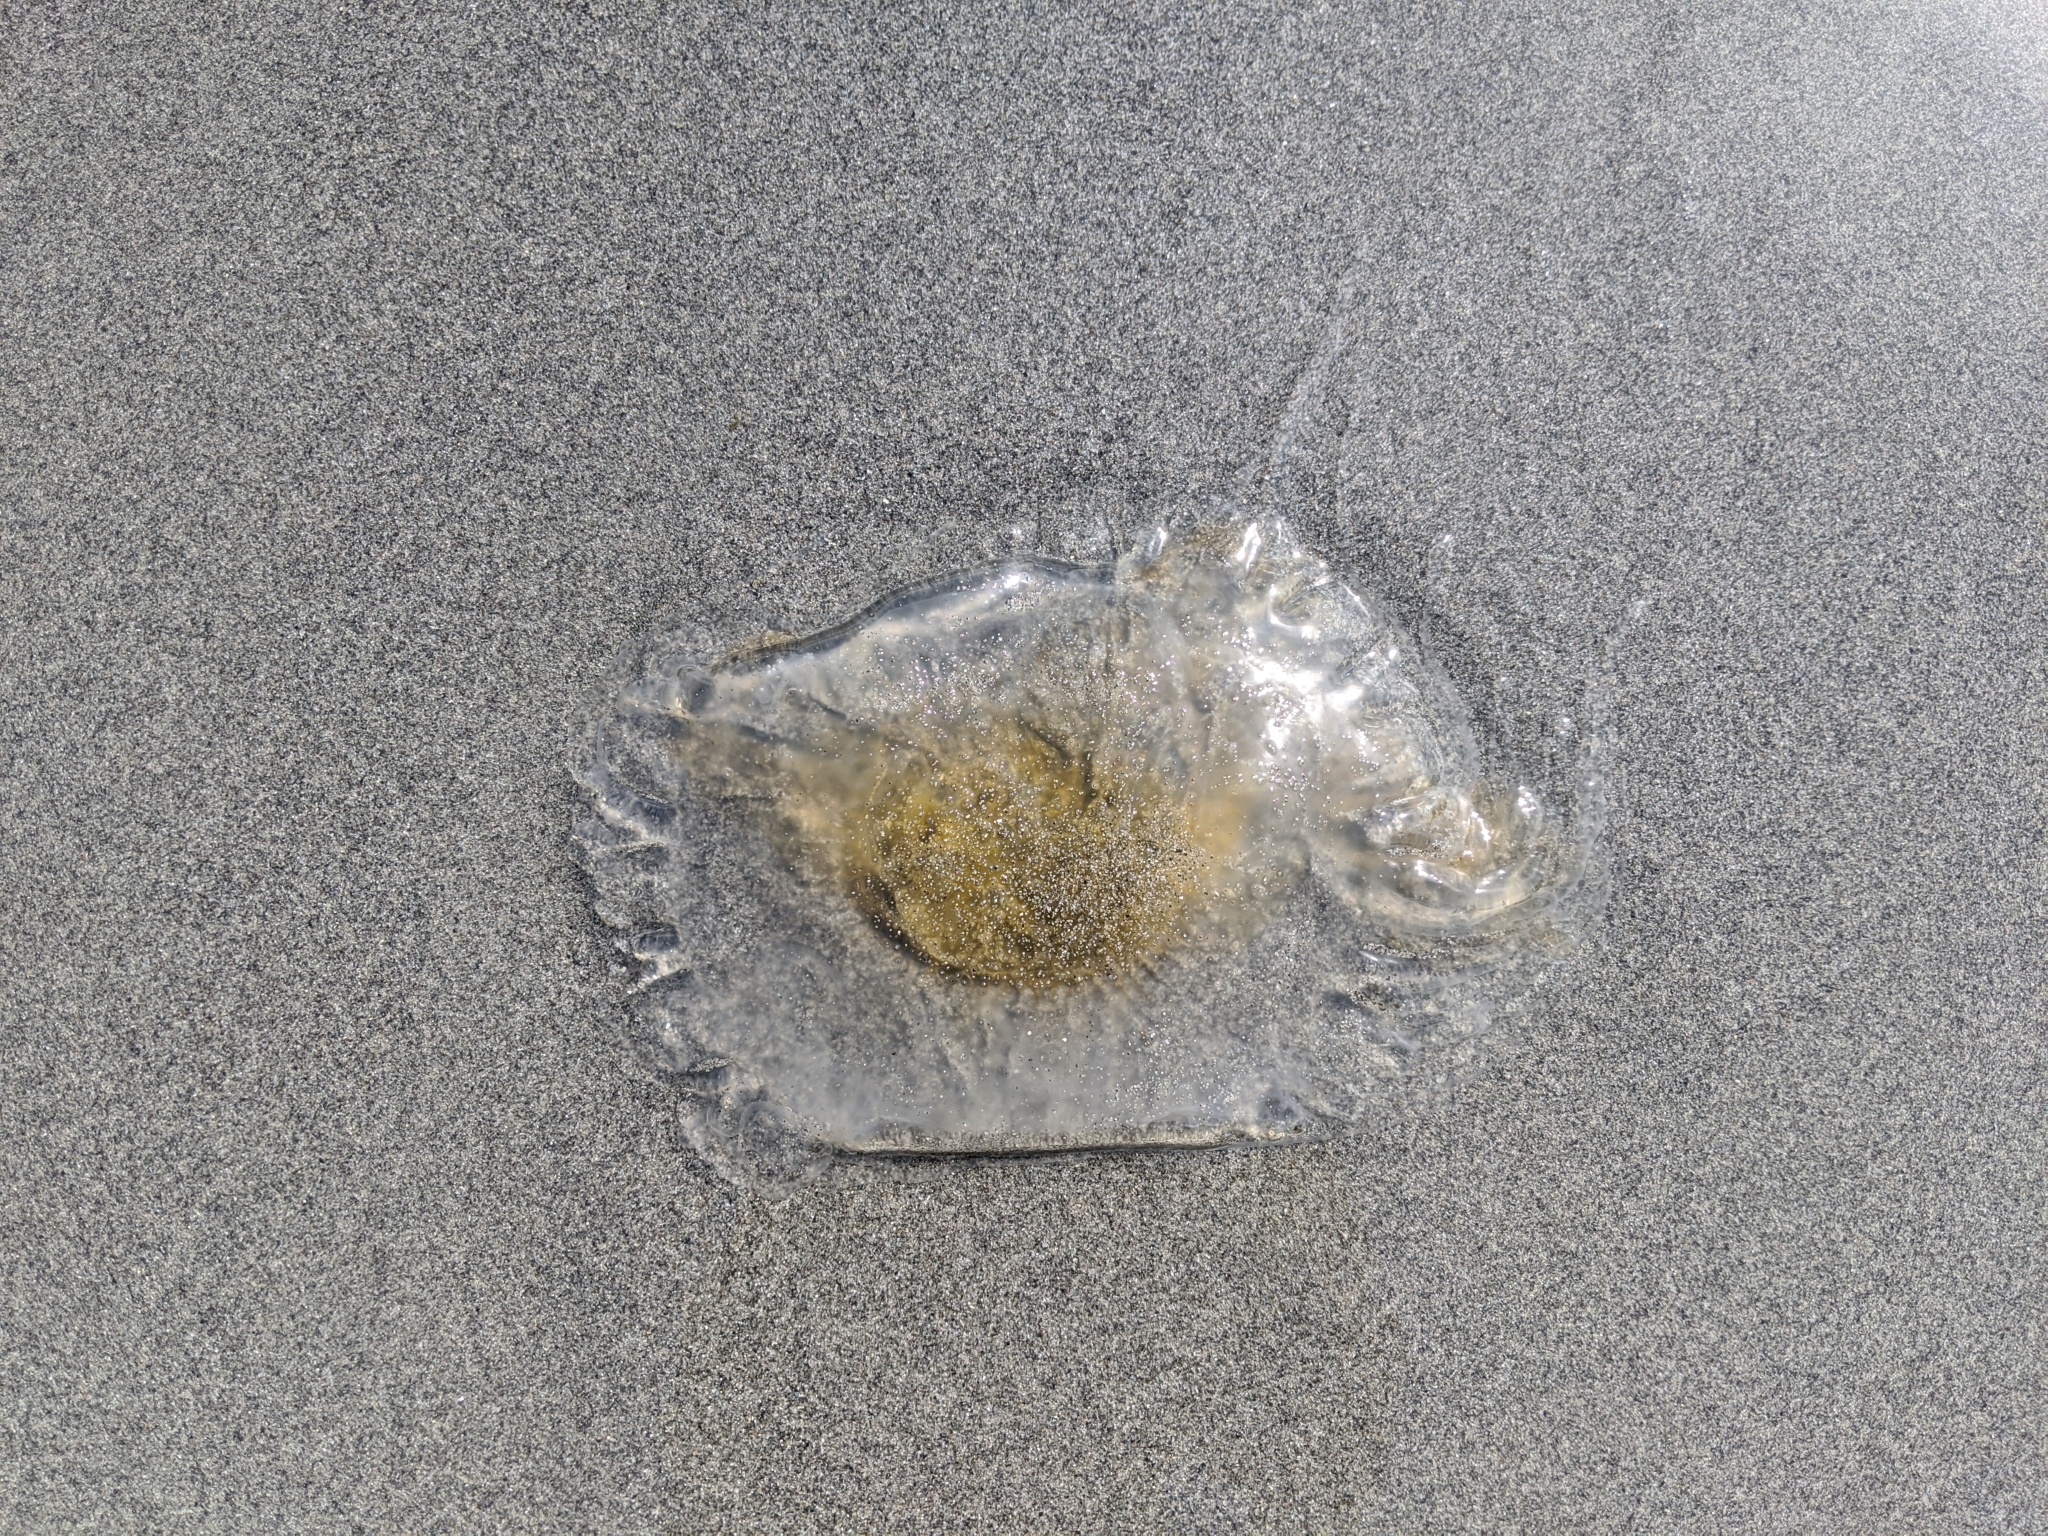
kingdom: Animalia
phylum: Cnidaria
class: Scyphozoa
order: Semaeostomeae
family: Phacellophoridae
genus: Phacellophora
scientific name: Phacellophora camtschatica
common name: Fried-egg jellyfish
